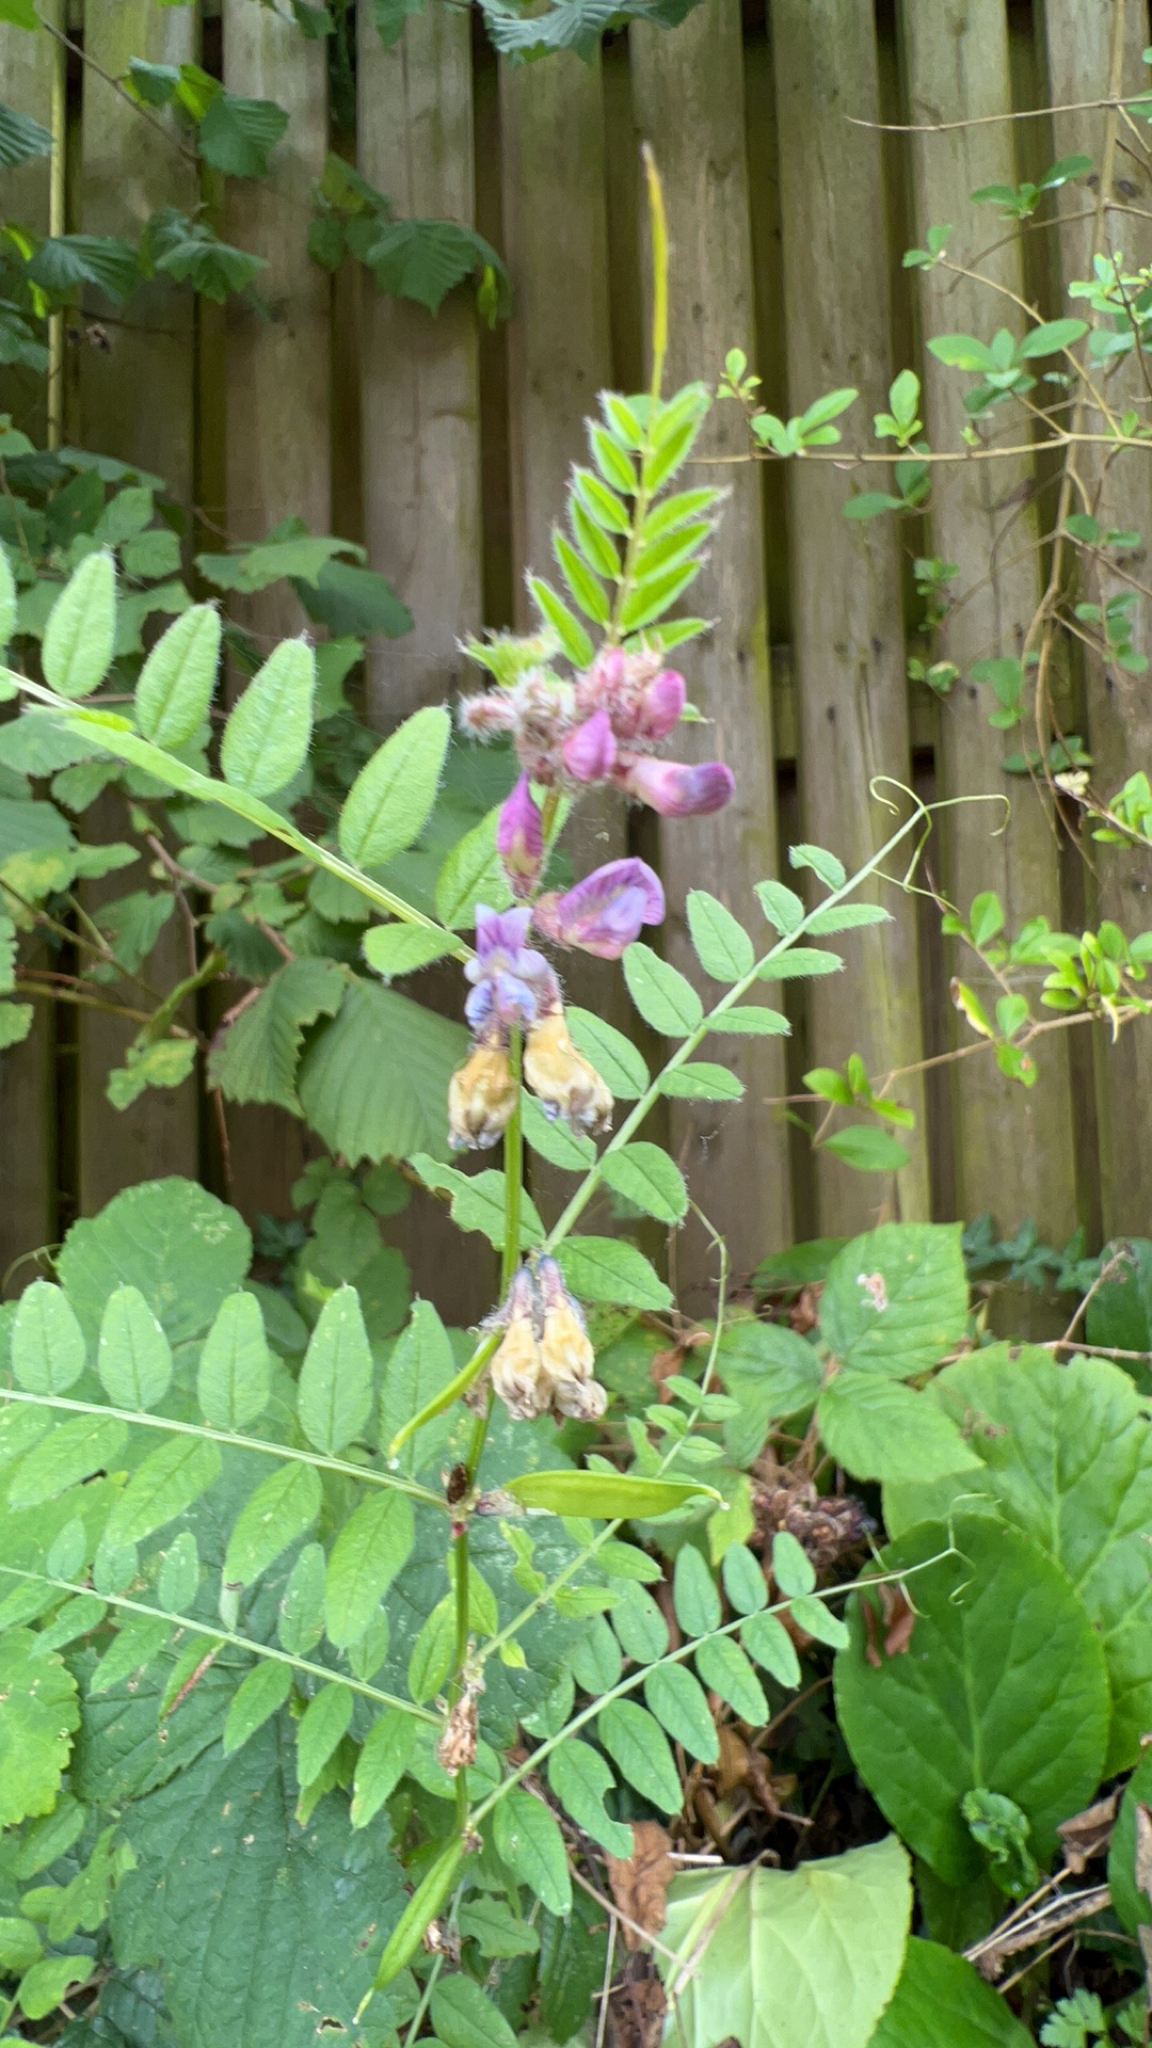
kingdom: Plantae
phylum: Tracheophyta
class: Magnoliopsida
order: Fabales
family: Fabaceae
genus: Vicia
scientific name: Vicia sepium
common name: Bush vetch
